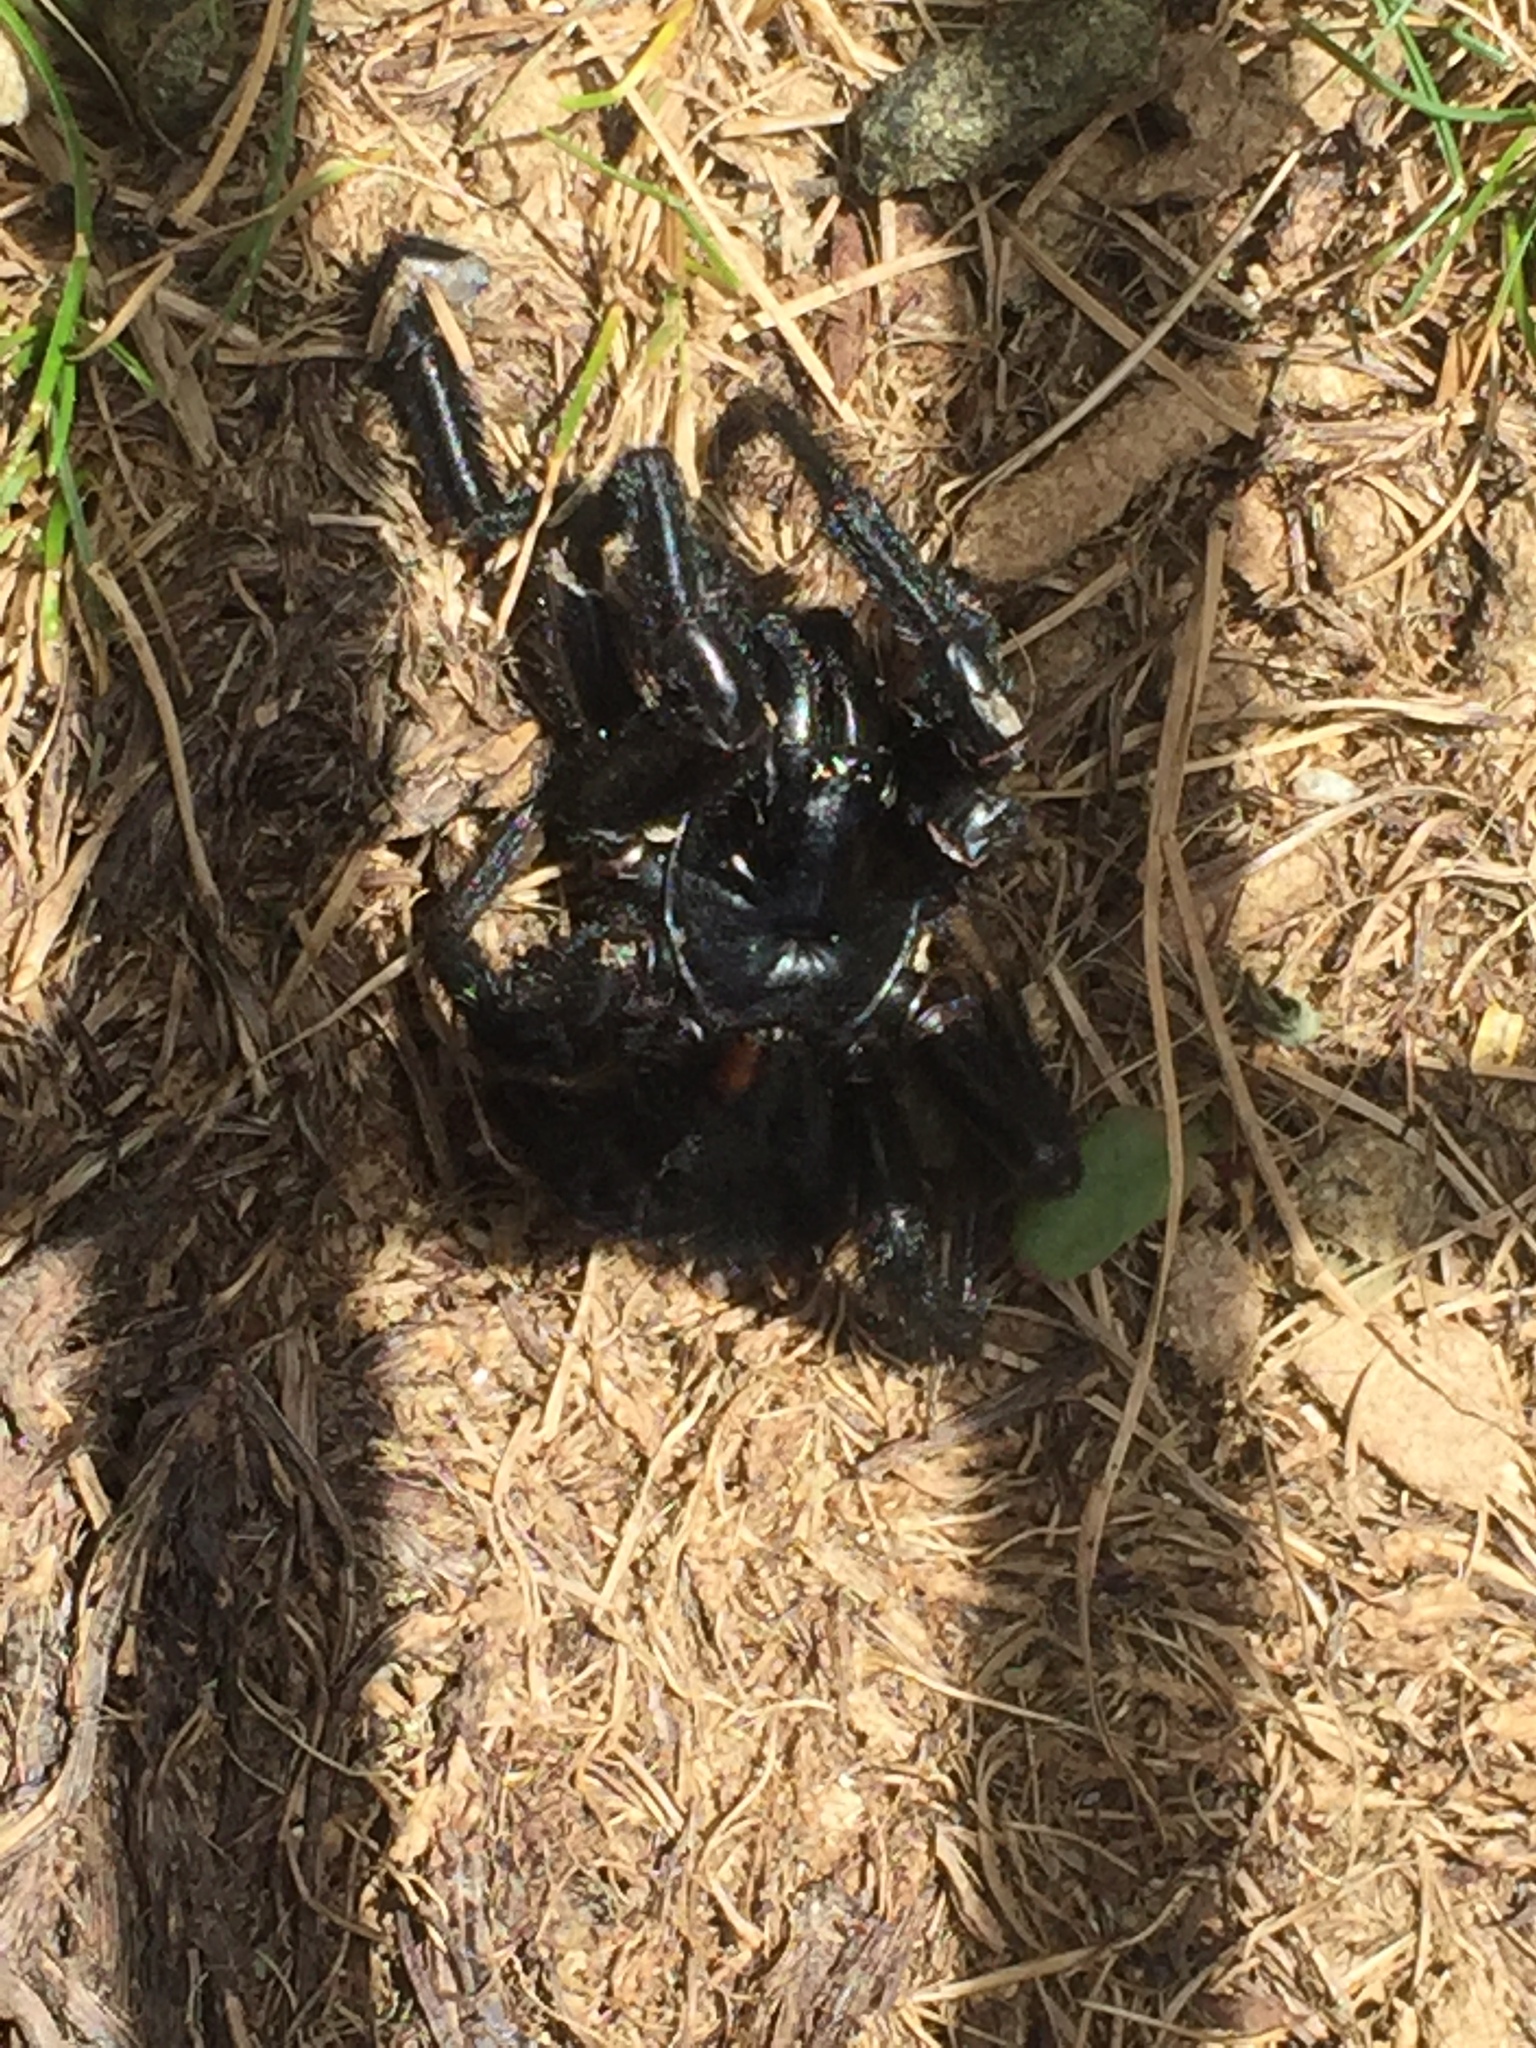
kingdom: Animalia
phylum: Arthropoda
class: Arachnida
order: Araneae
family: Atracidae
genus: Hadronyche
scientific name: Hadronyche alpina
